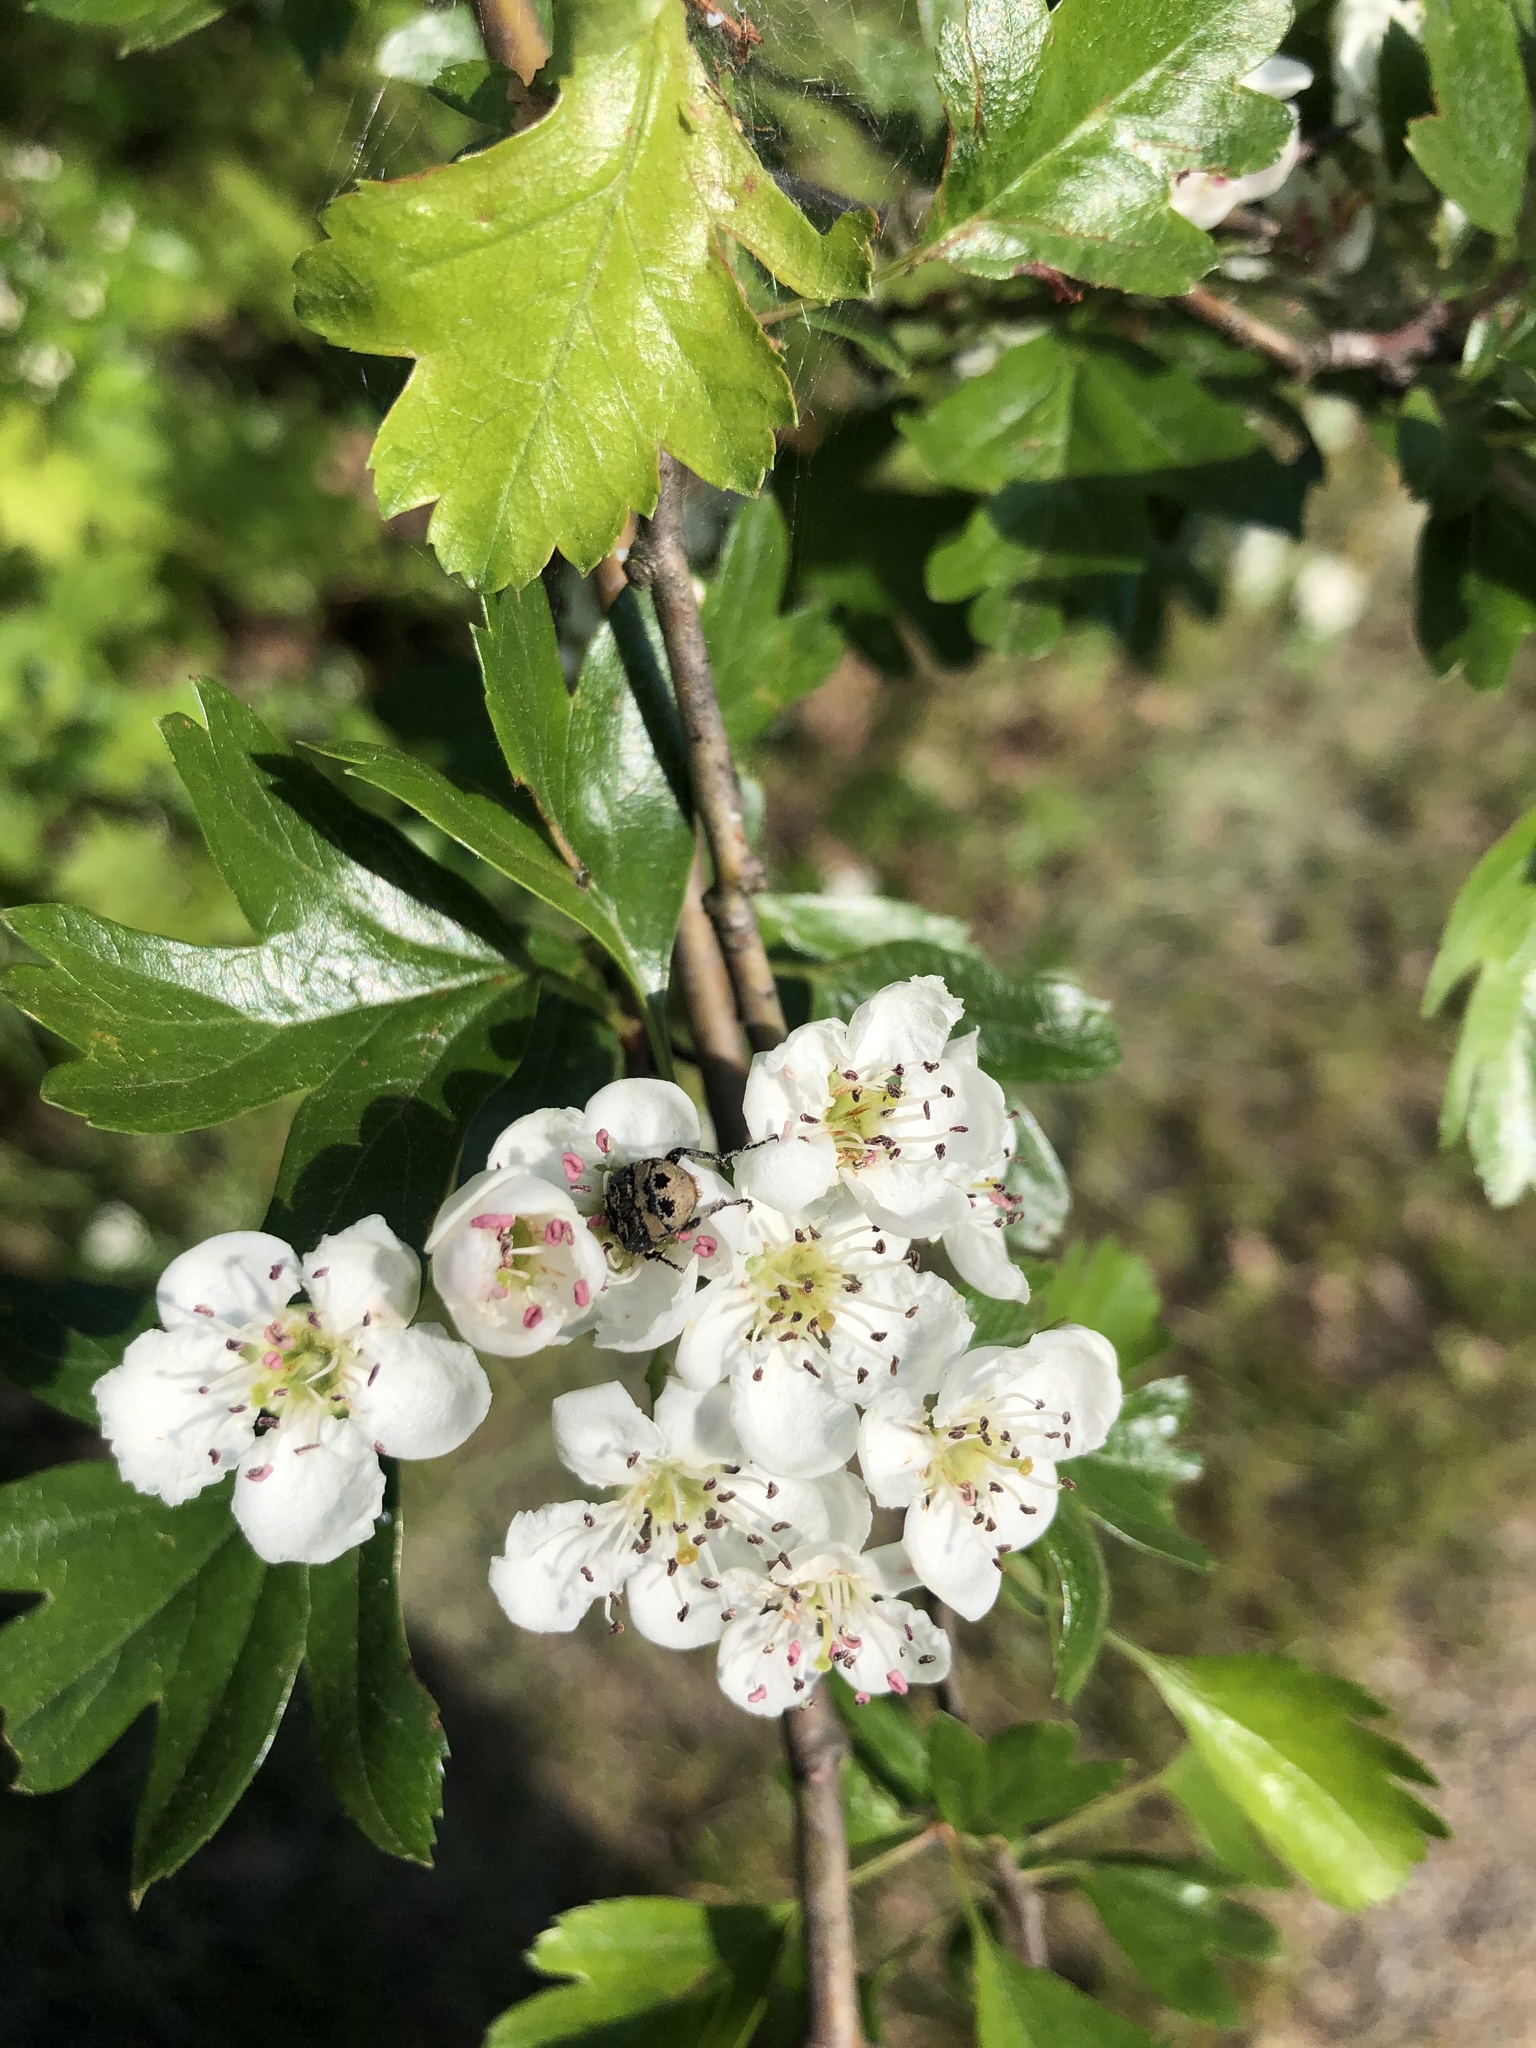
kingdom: Plantae
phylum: Tracheophyta
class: Magnoliopsida
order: Rosales
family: Rosaceae
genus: Crataegus
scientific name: Crataegus monogyna
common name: Hawthorn
